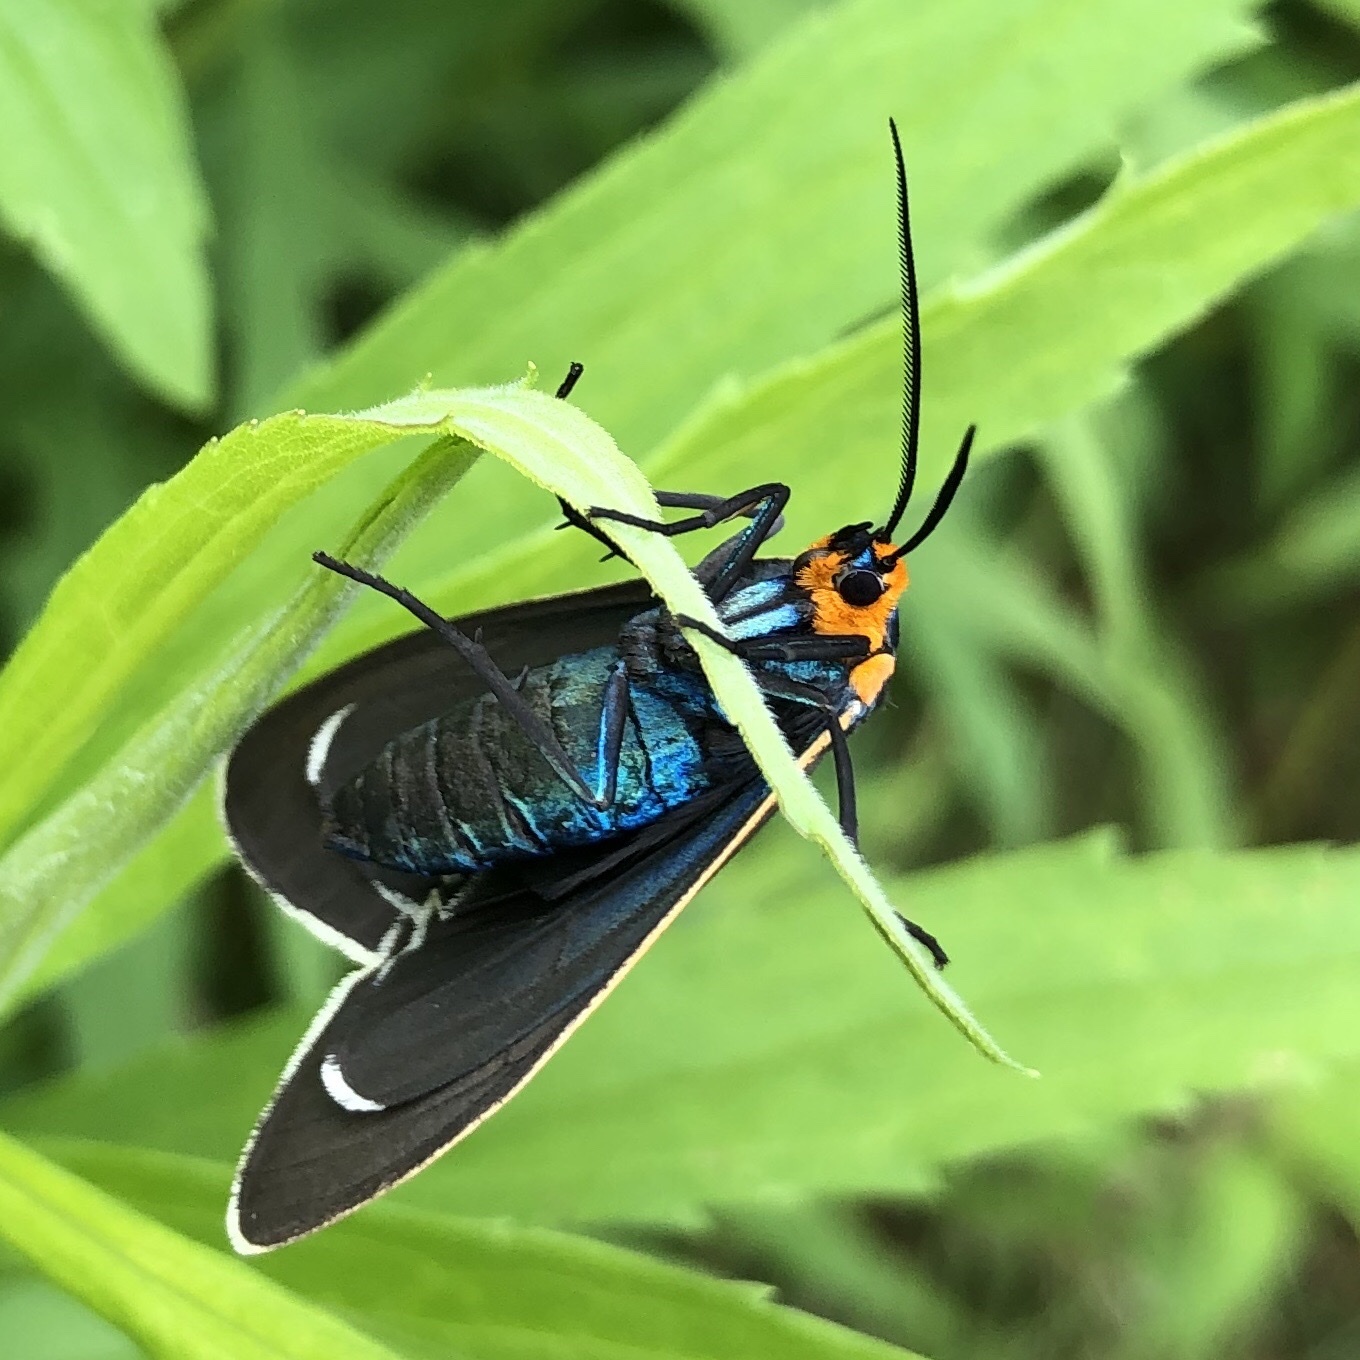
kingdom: Animalia
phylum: Arthropoda
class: Insecta
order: Lepidoptera
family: Erebidae
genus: Ctenucha
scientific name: Ctenucha virginica
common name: Virginia ctenucha moth
